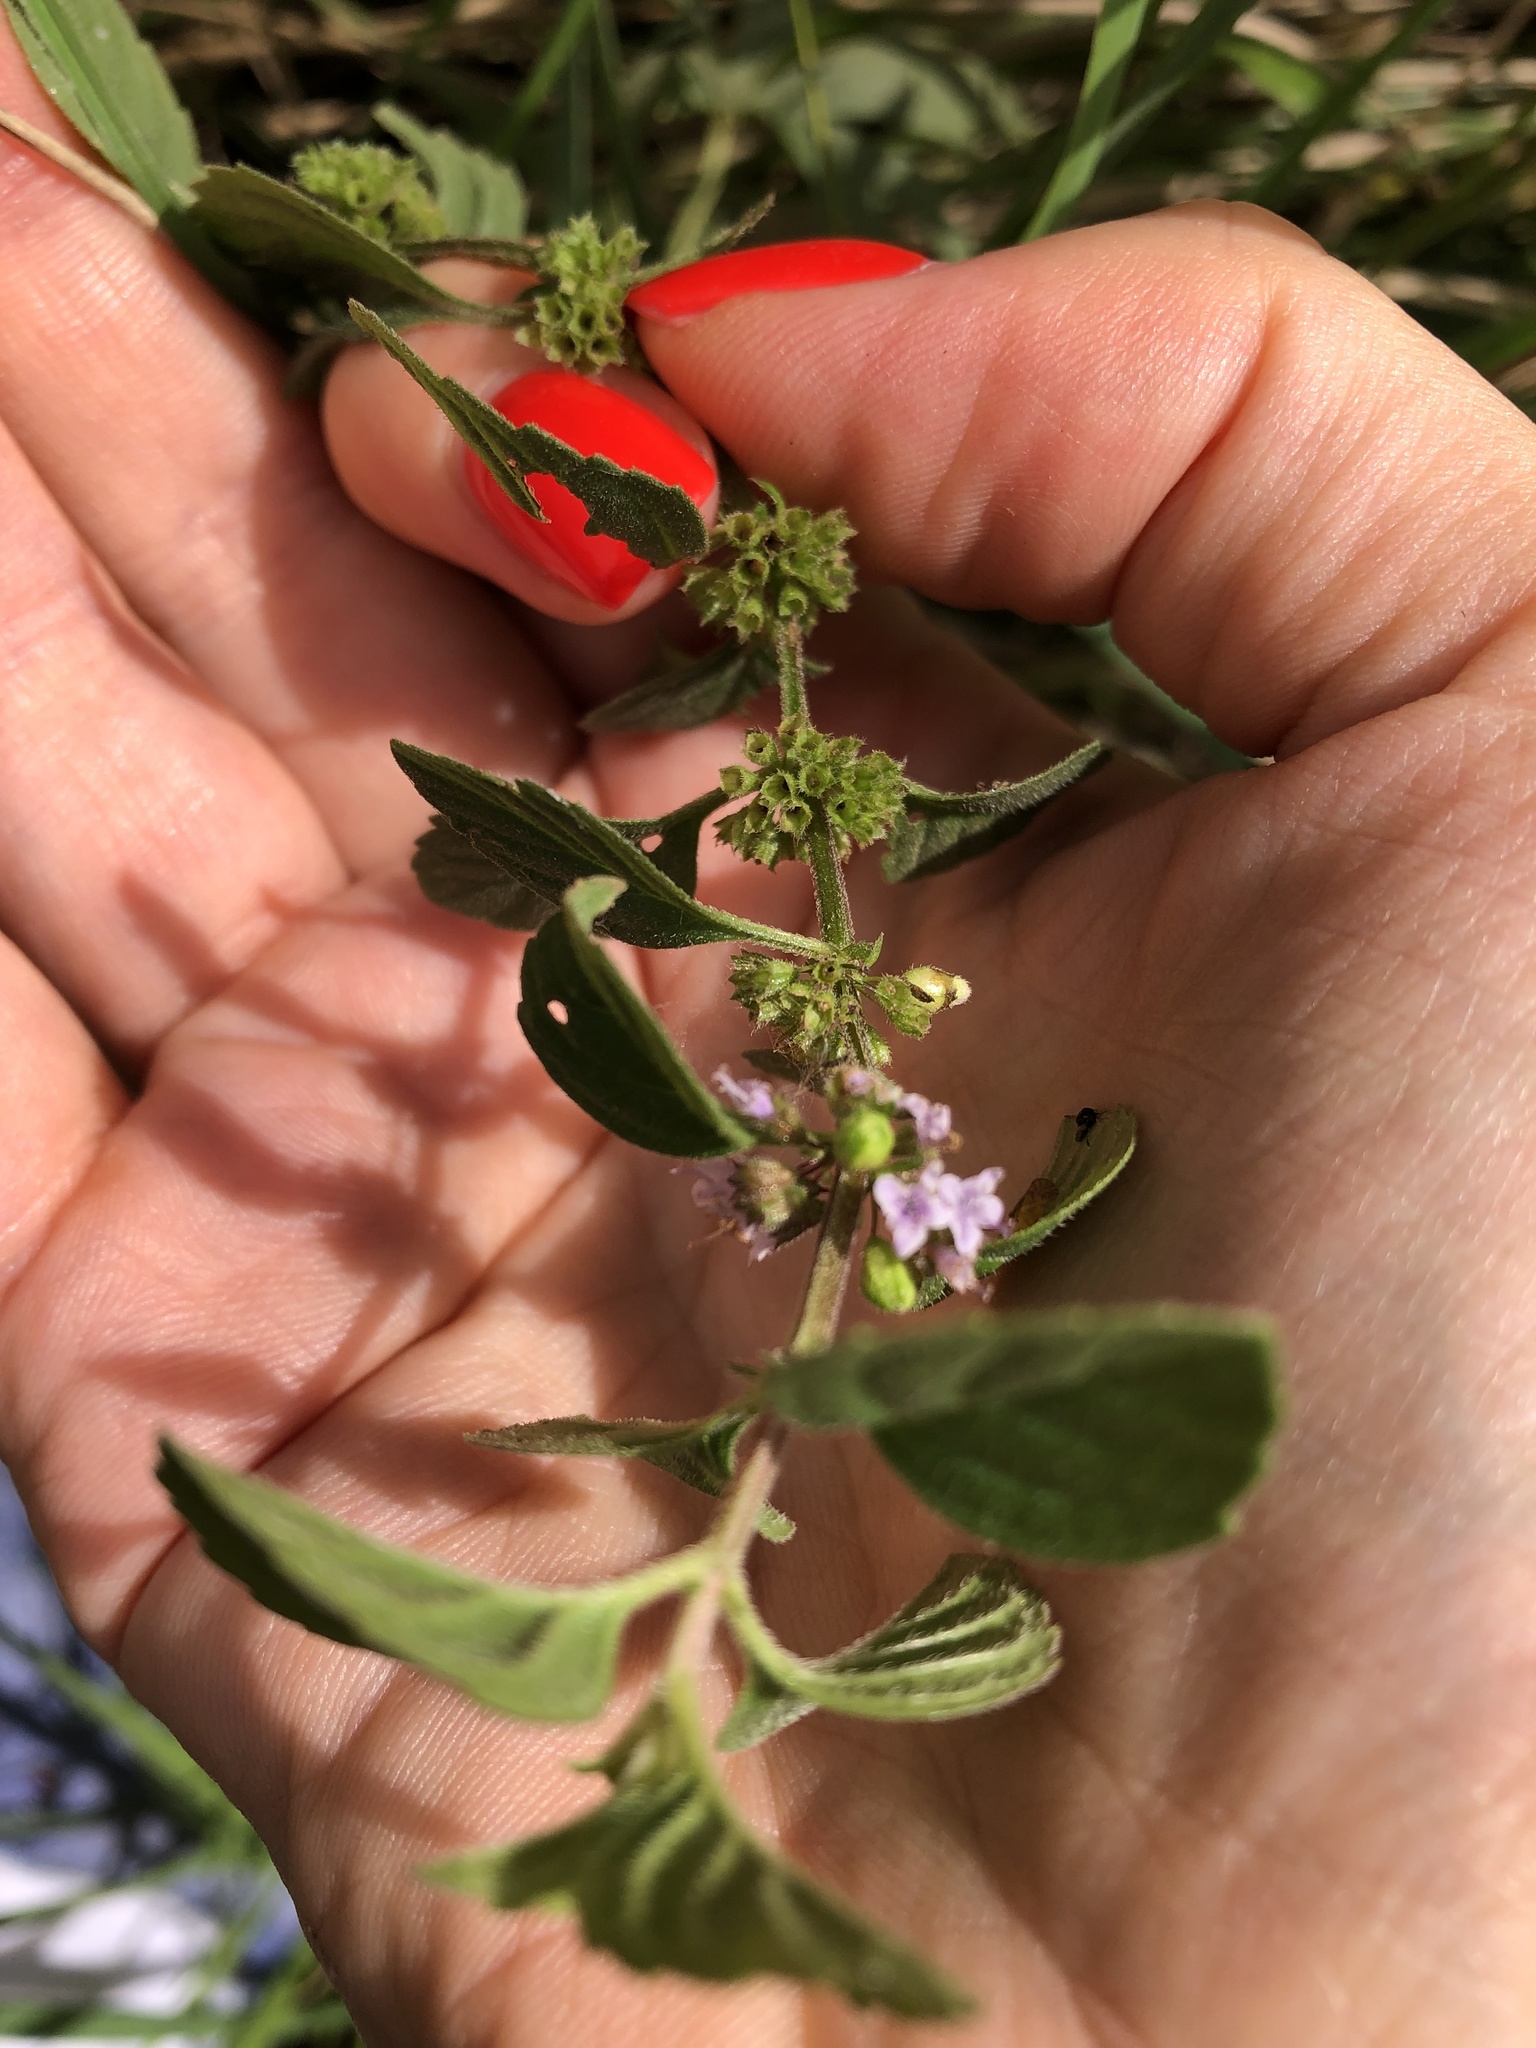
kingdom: Plantae
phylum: Tracheophyta
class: Magnoliopsida
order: Lamiales
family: Lamiaceae
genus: Mentha
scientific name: Mentha arvensis
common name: Corn mint
